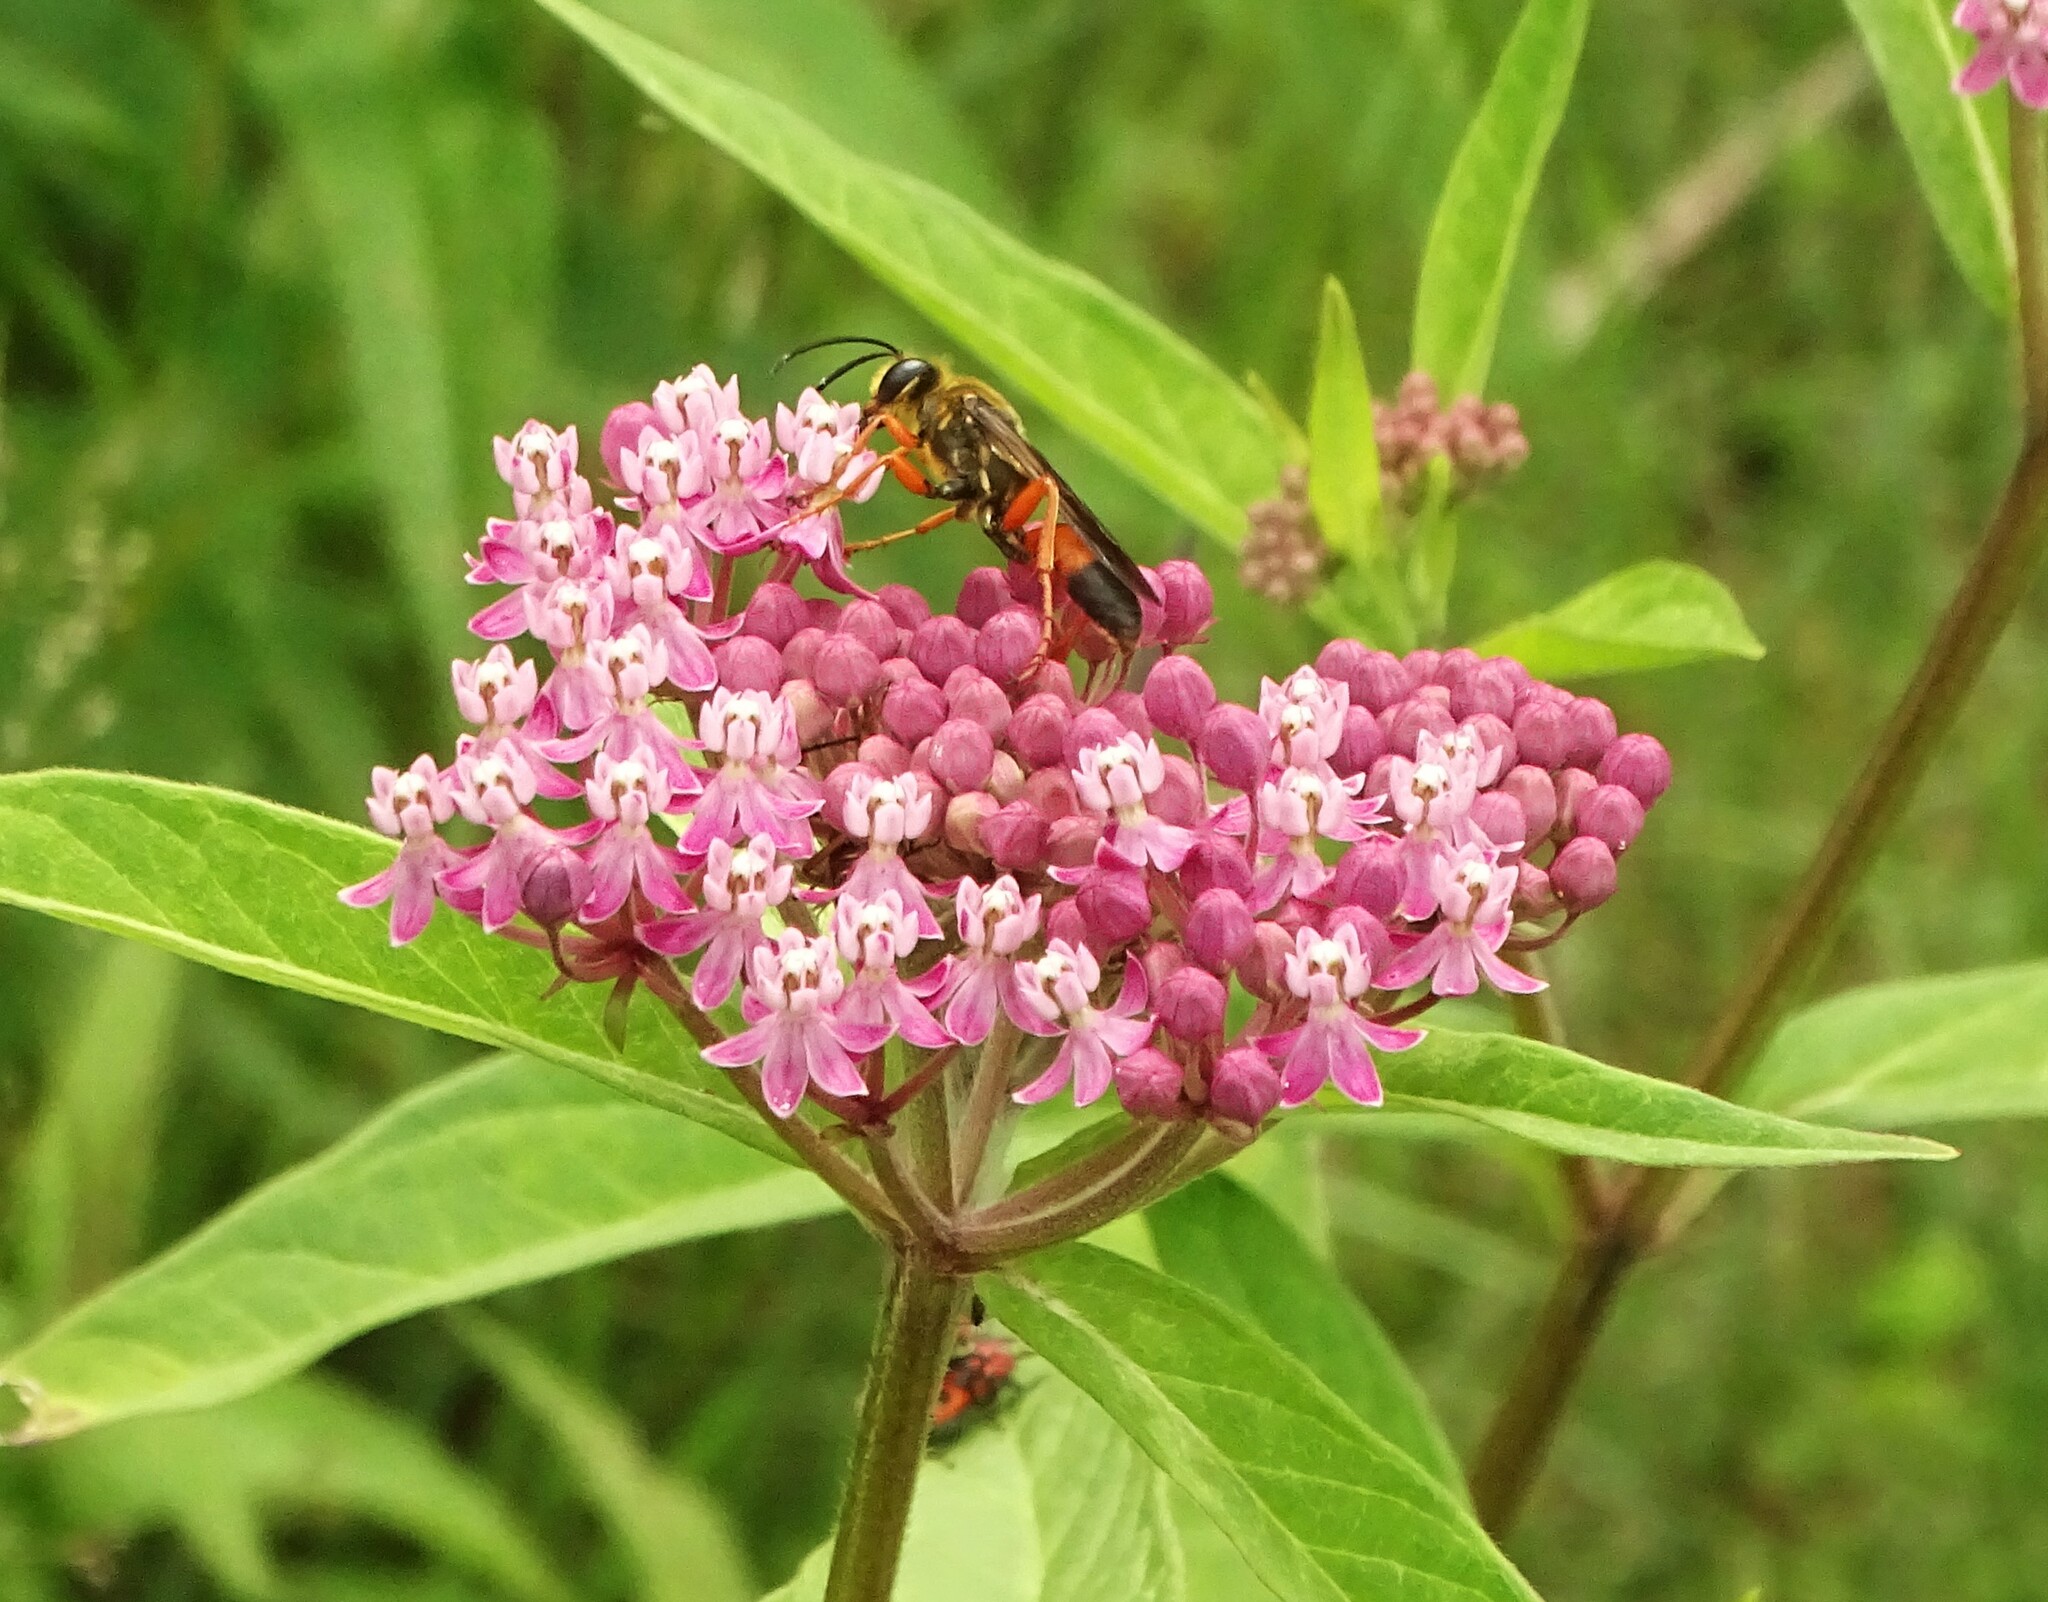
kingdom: Animalia
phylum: Arthropoda
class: Insecta
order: Hymenoptera
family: Sphecidae
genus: Sphex
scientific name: Sphex ichneumoneus
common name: Great golden digger wasp
